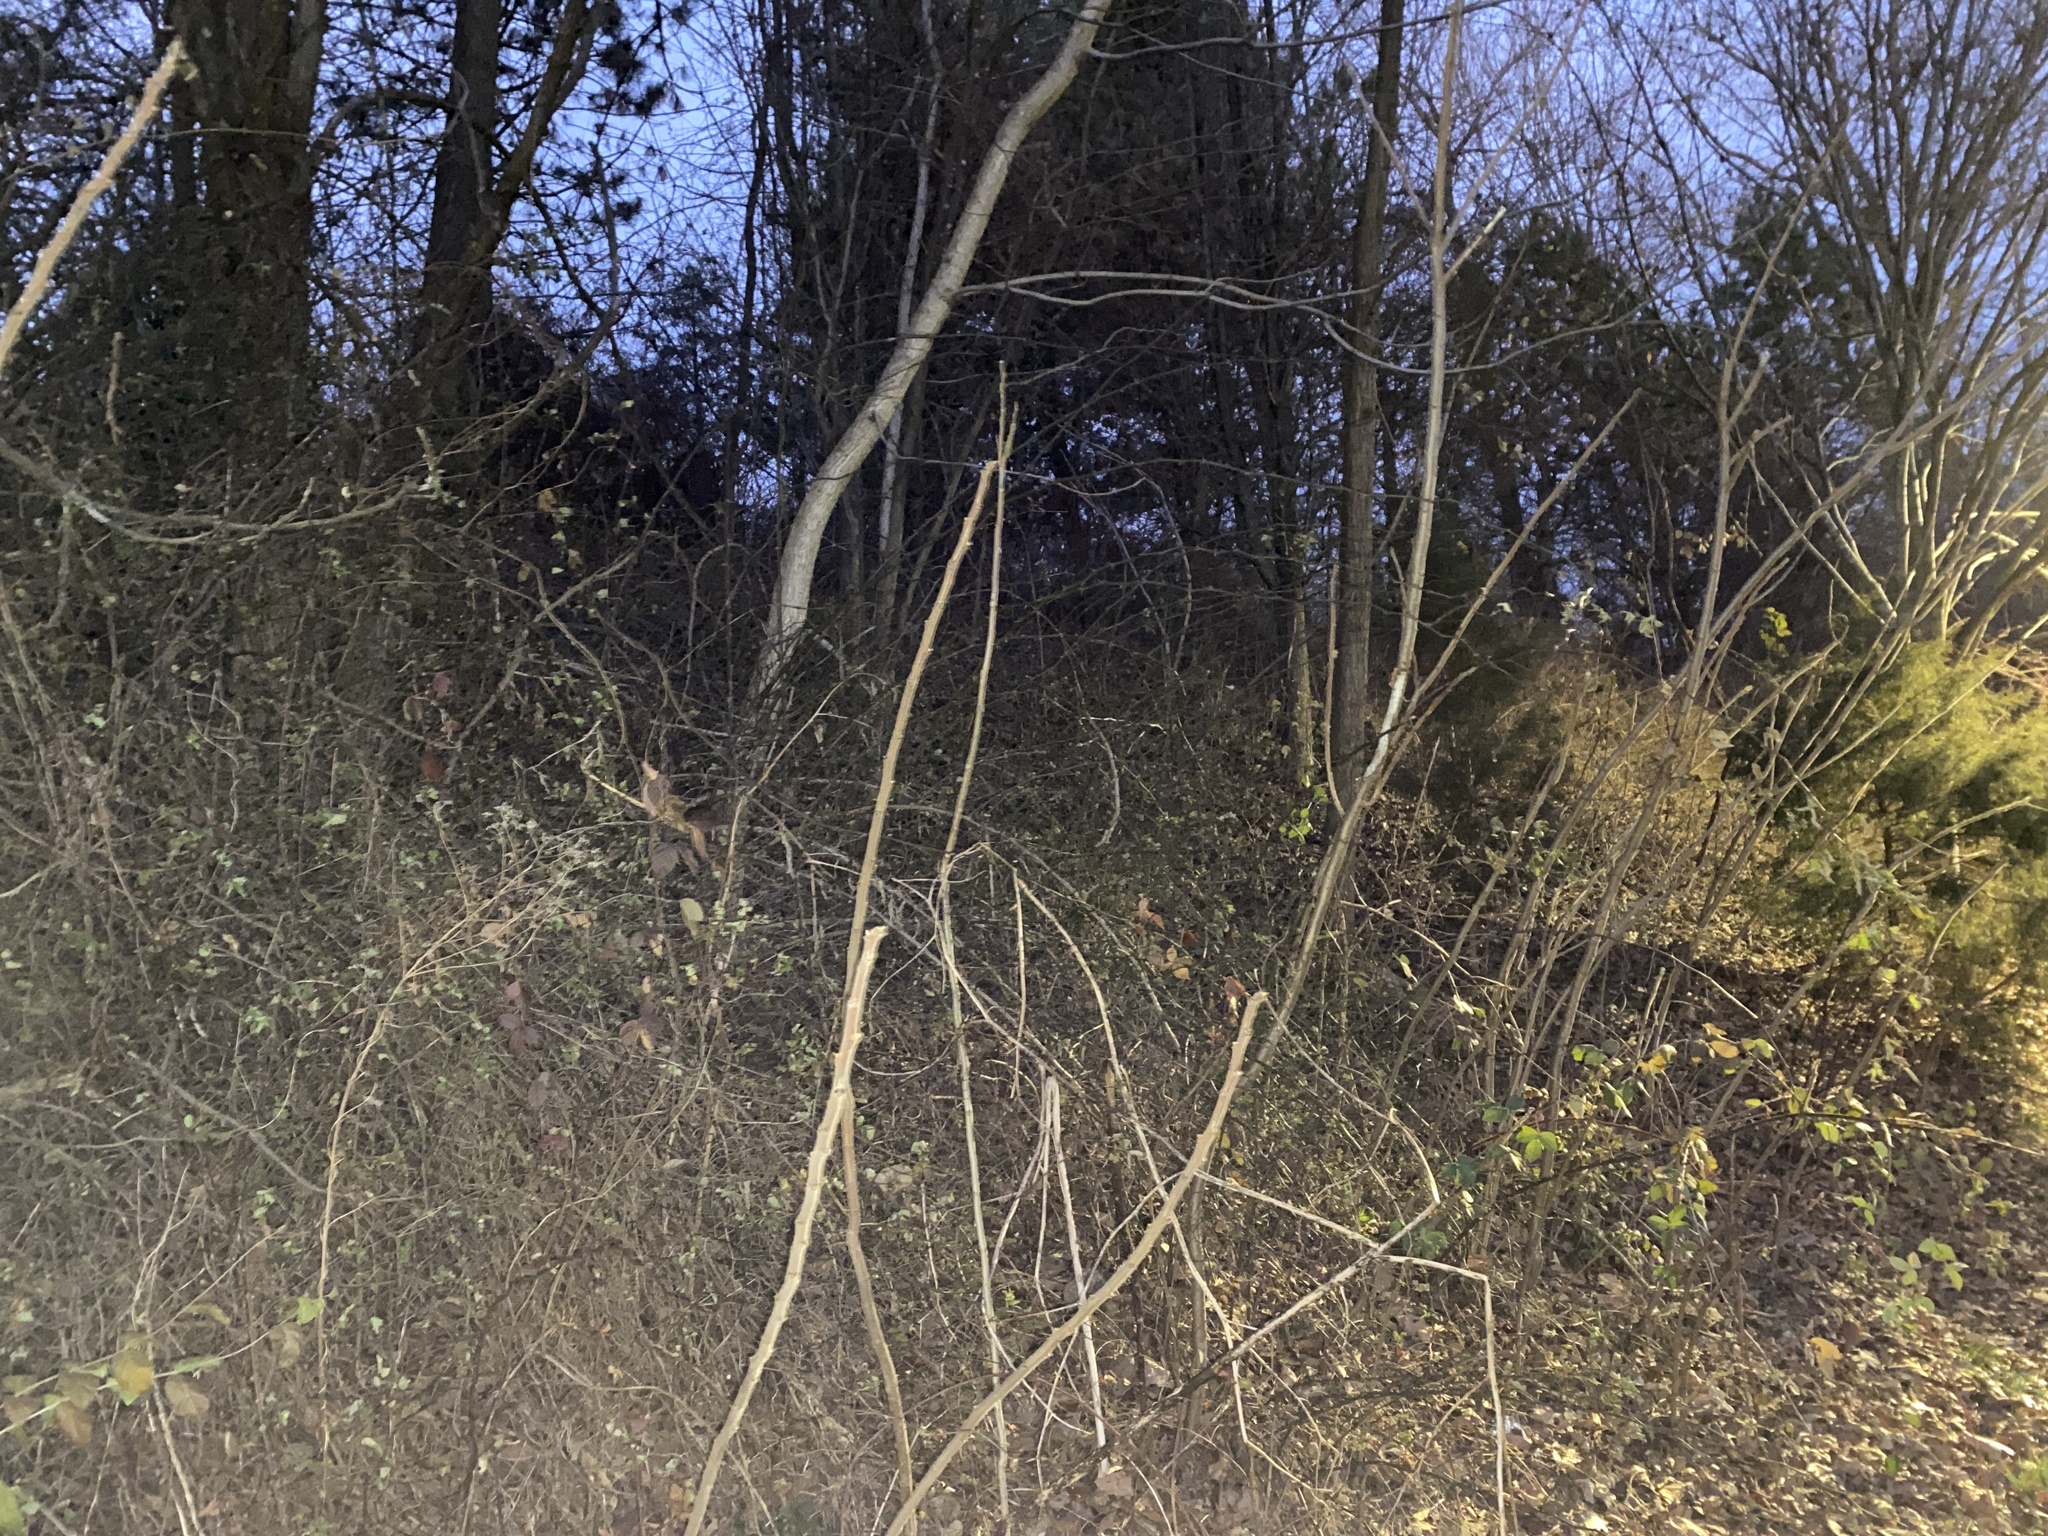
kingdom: Plantae
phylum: Tracheophyta
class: Magnoliopsida
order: Sapindales
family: Anacardiaceae
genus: Rhus
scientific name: Rhus typhina
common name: Staghorn sumac
